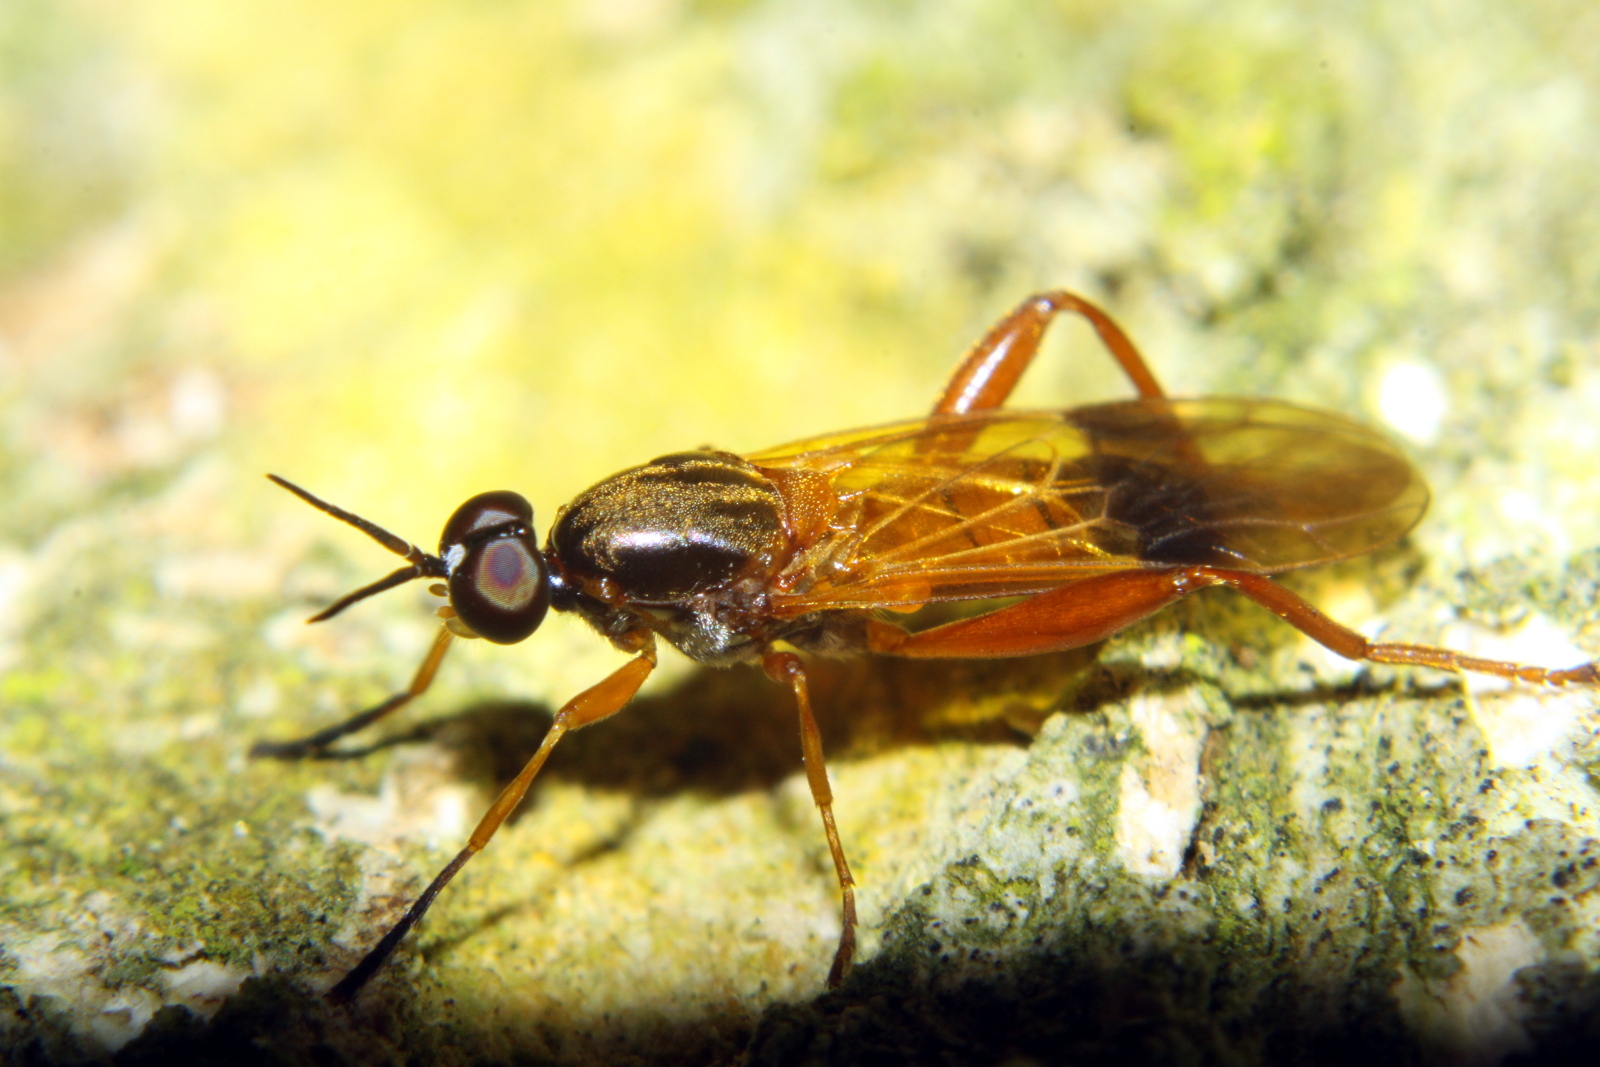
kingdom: Animalia
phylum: Arthropoda
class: Insecta
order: Diptera
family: Stratiomyidae
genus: Benhamyia
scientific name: Benhamyia apicalis
